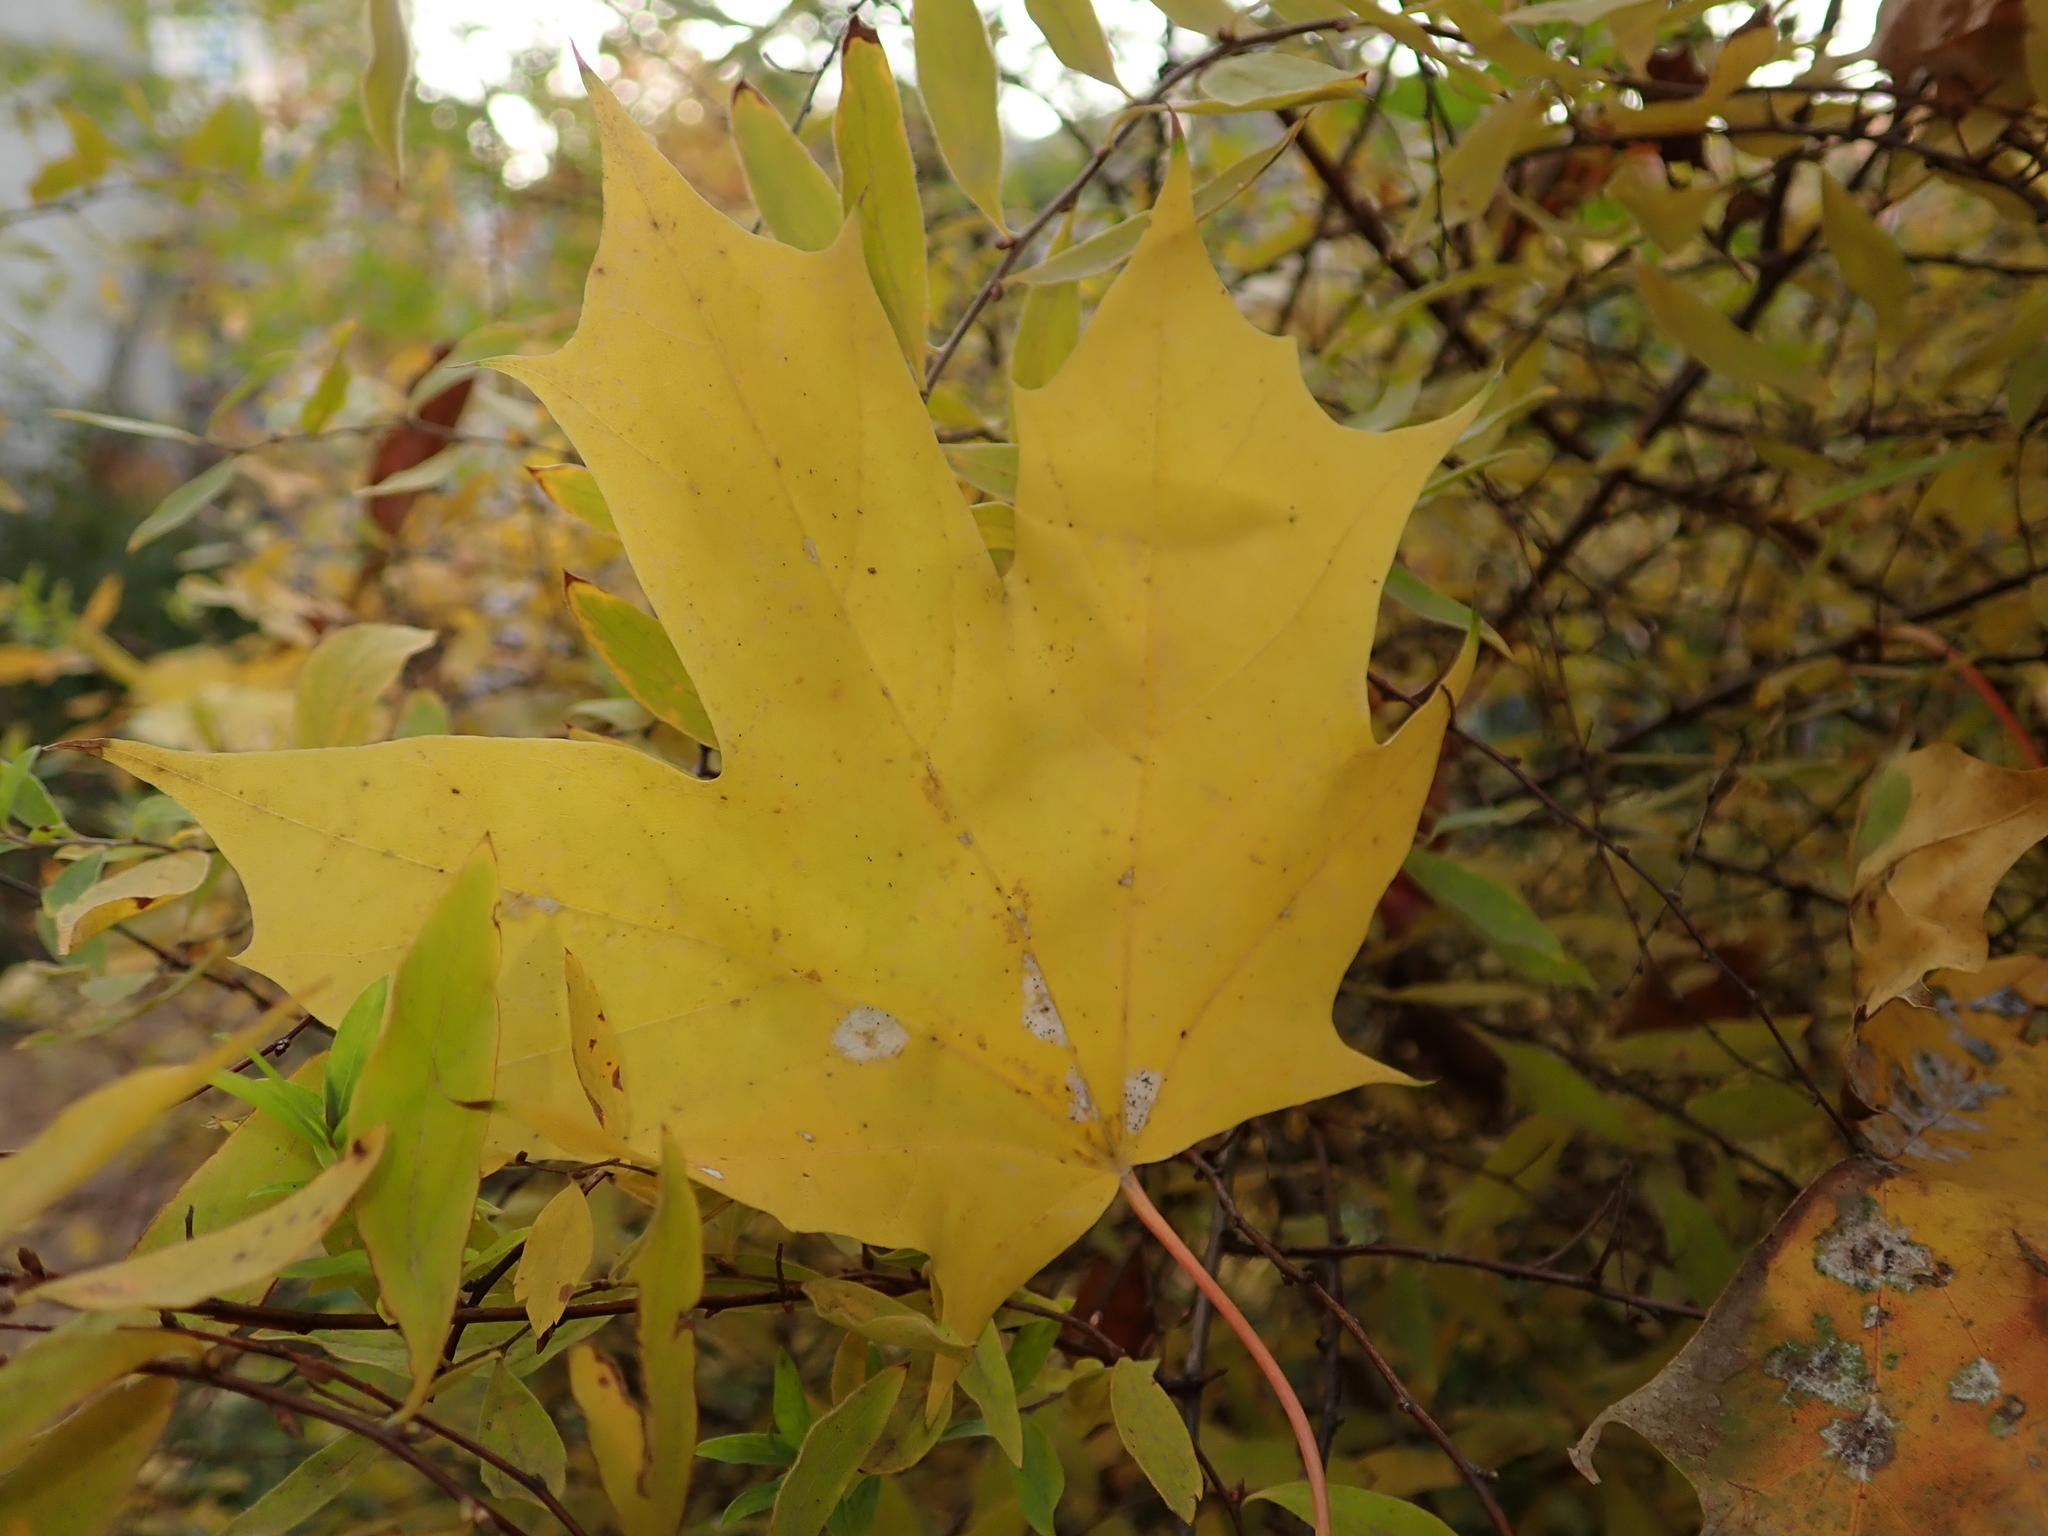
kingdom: Plantae
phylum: Tracheophyta
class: Magnoliopsida
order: Sapindales
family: Sapindaceae
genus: Acer
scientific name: Acer platanoides
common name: Norway maple
